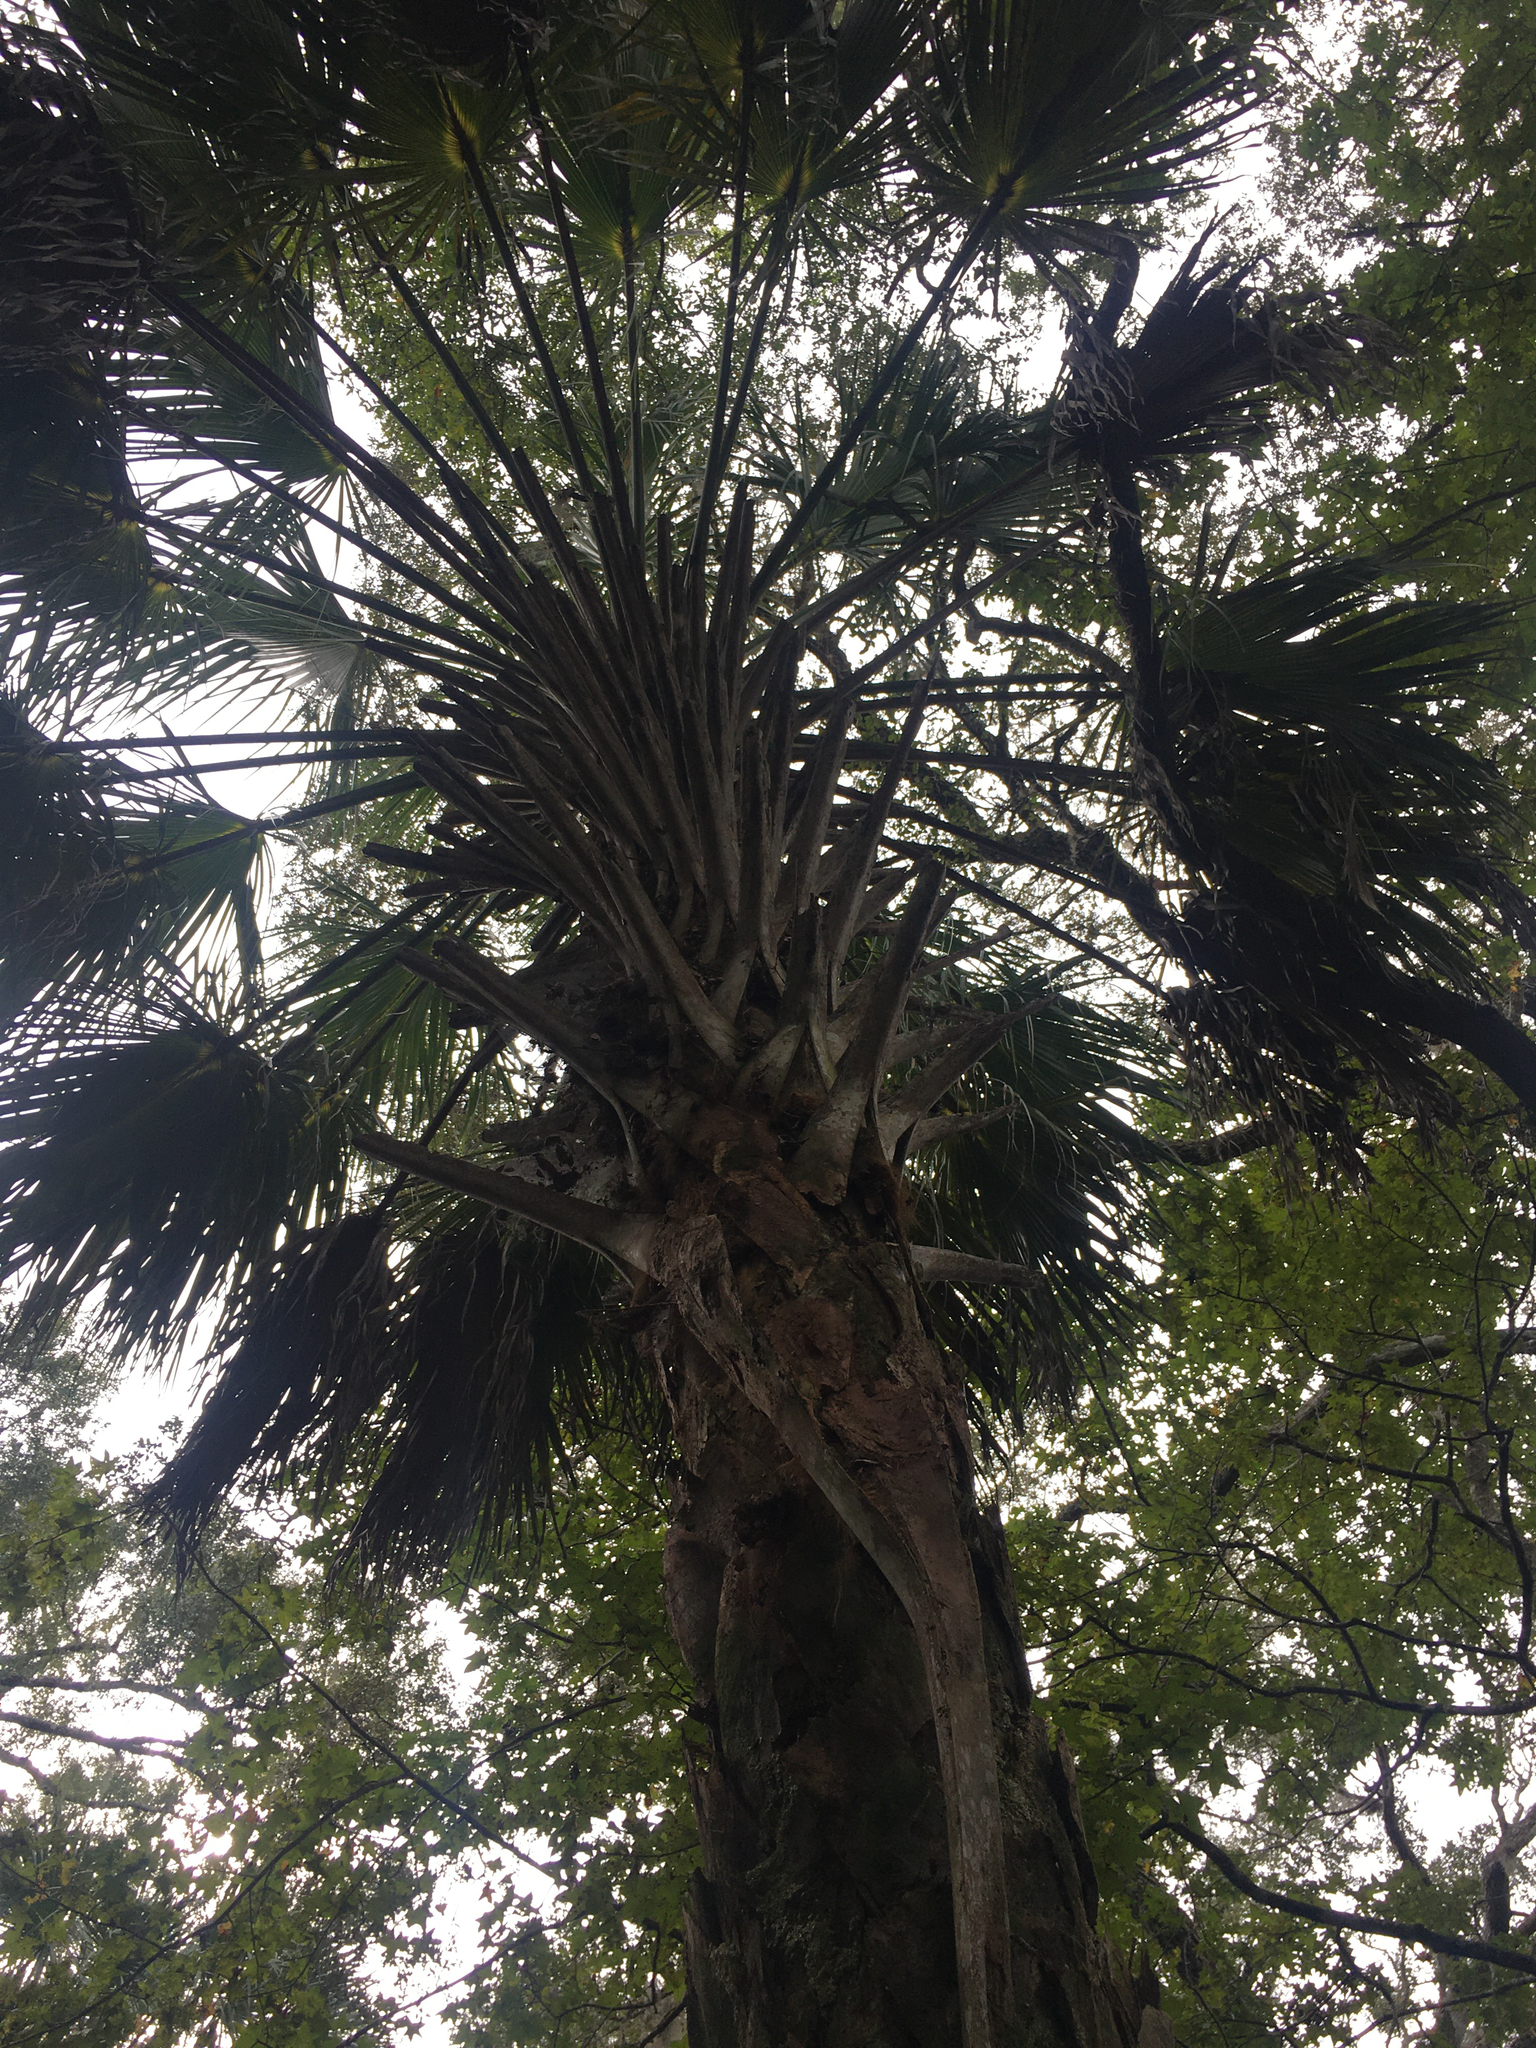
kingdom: Plantae
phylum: Tracheophyta
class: Liliopsida
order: Arecales
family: Arecaceae
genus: Sabal
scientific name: Sabal palmetto
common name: Blue palmetto
